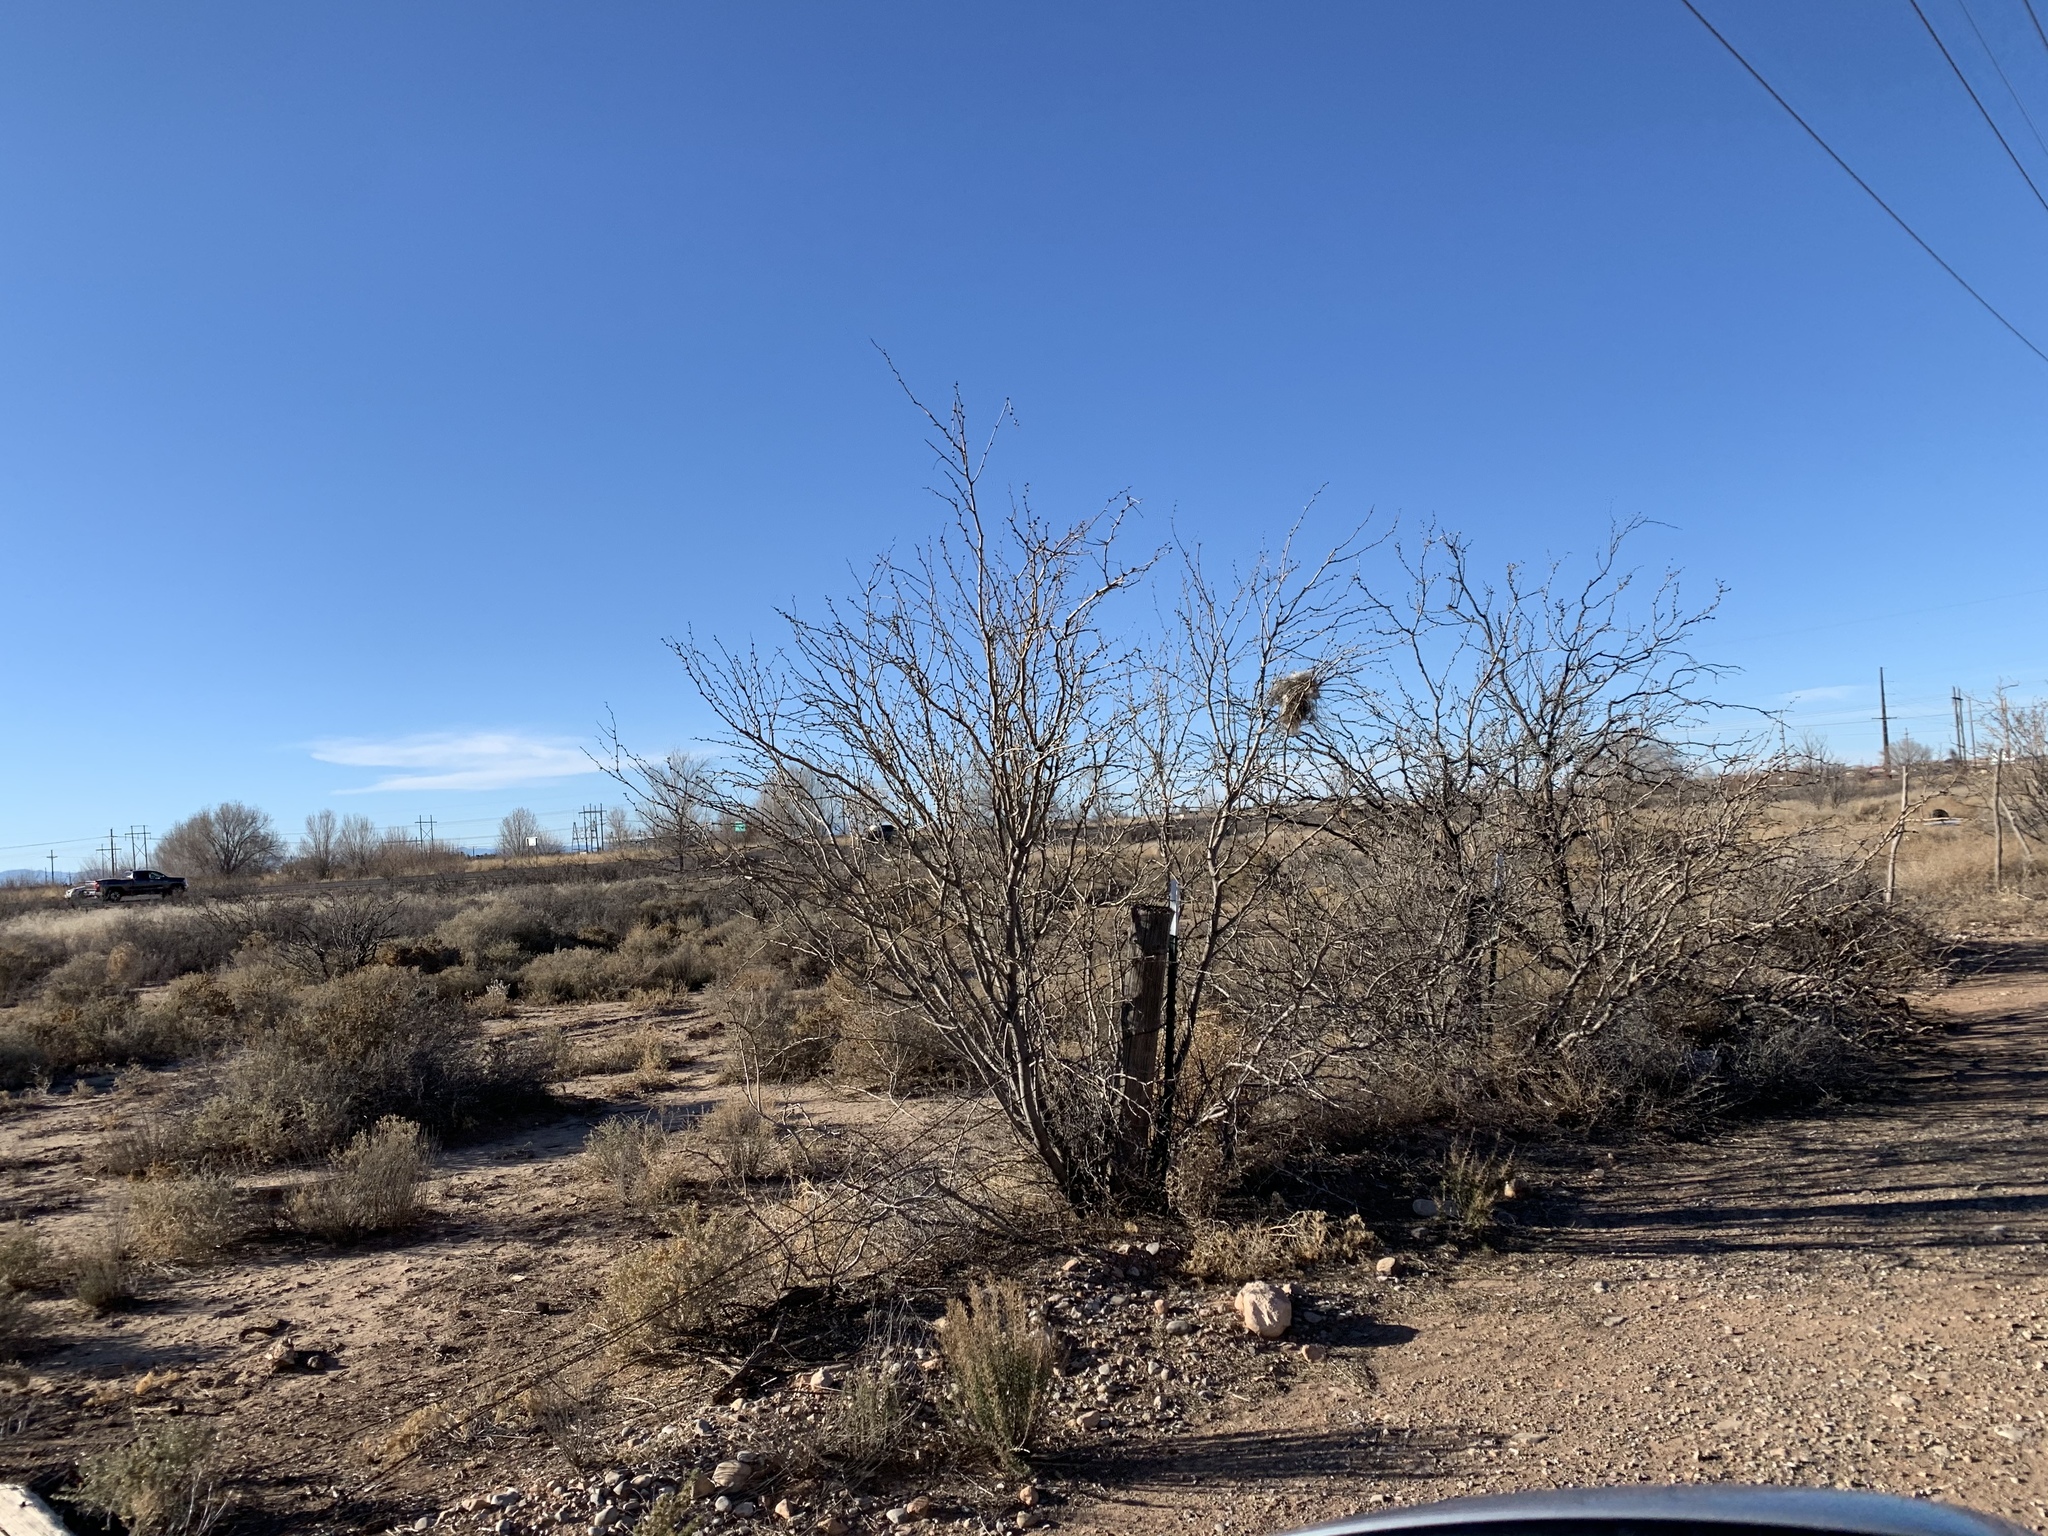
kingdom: Plantae
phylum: Tracheophyta
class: Magnoliopsida
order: Fabales
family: Fabaceae
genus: Prosopis
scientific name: Prosopis glandulosa
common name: Honey mesquite
